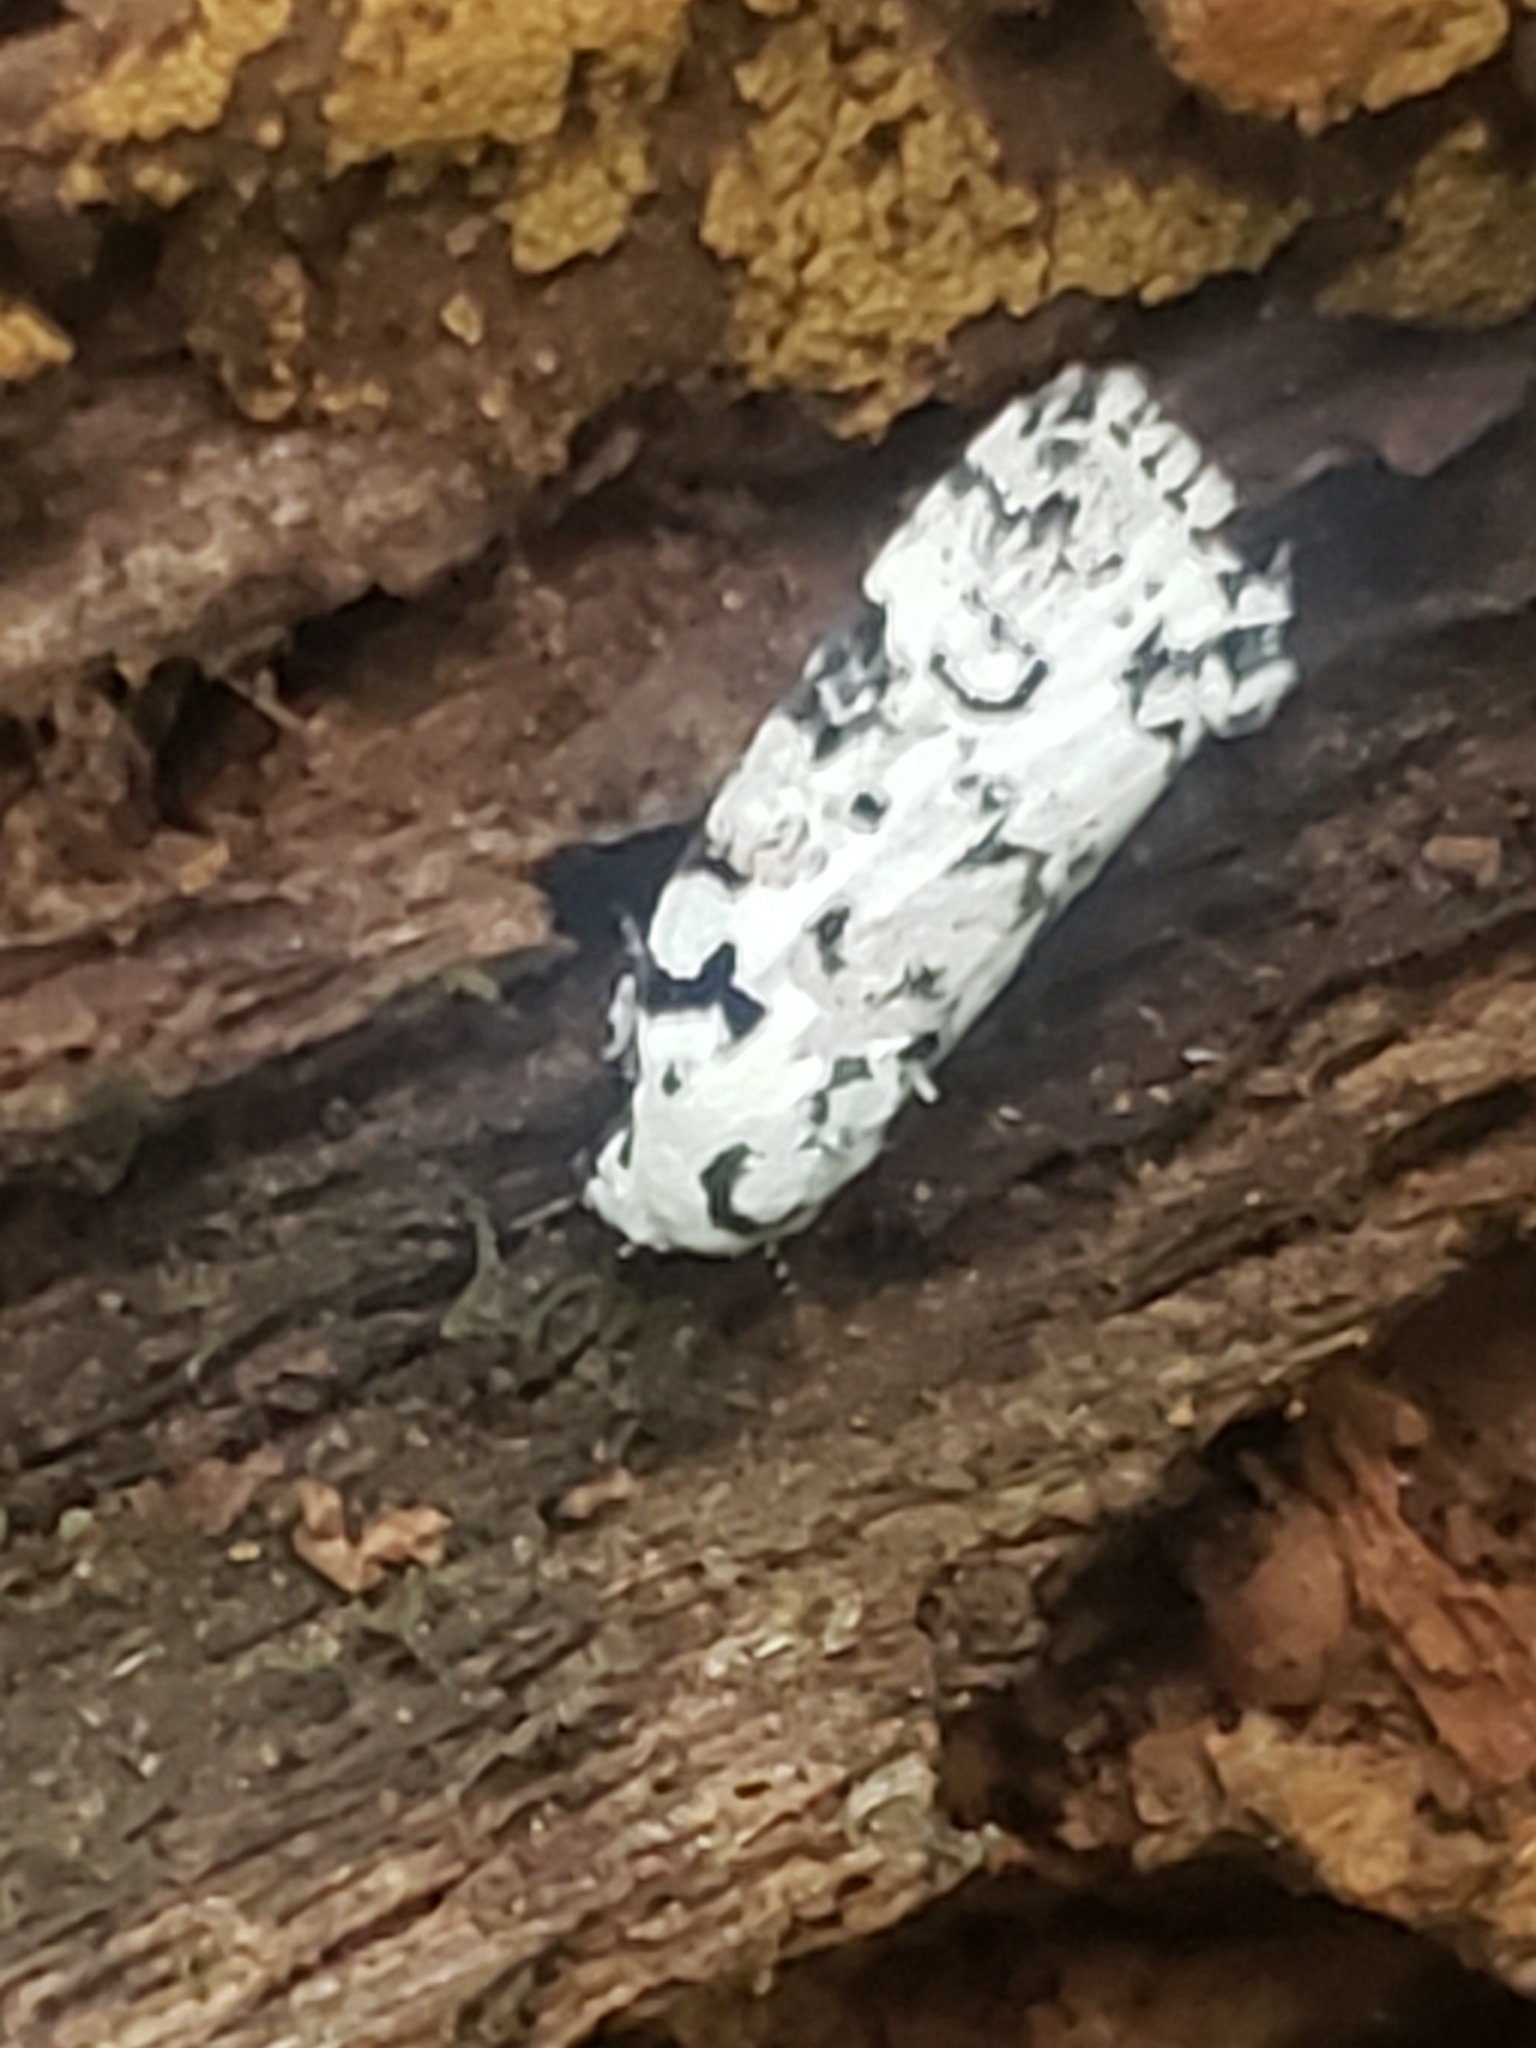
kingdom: Animalia
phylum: Arthropoda
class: Insecta
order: Lepidoptera
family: Noctuidae
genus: Polygrammate
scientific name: Polygrammate hebraeicum
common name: Hebrew moth
